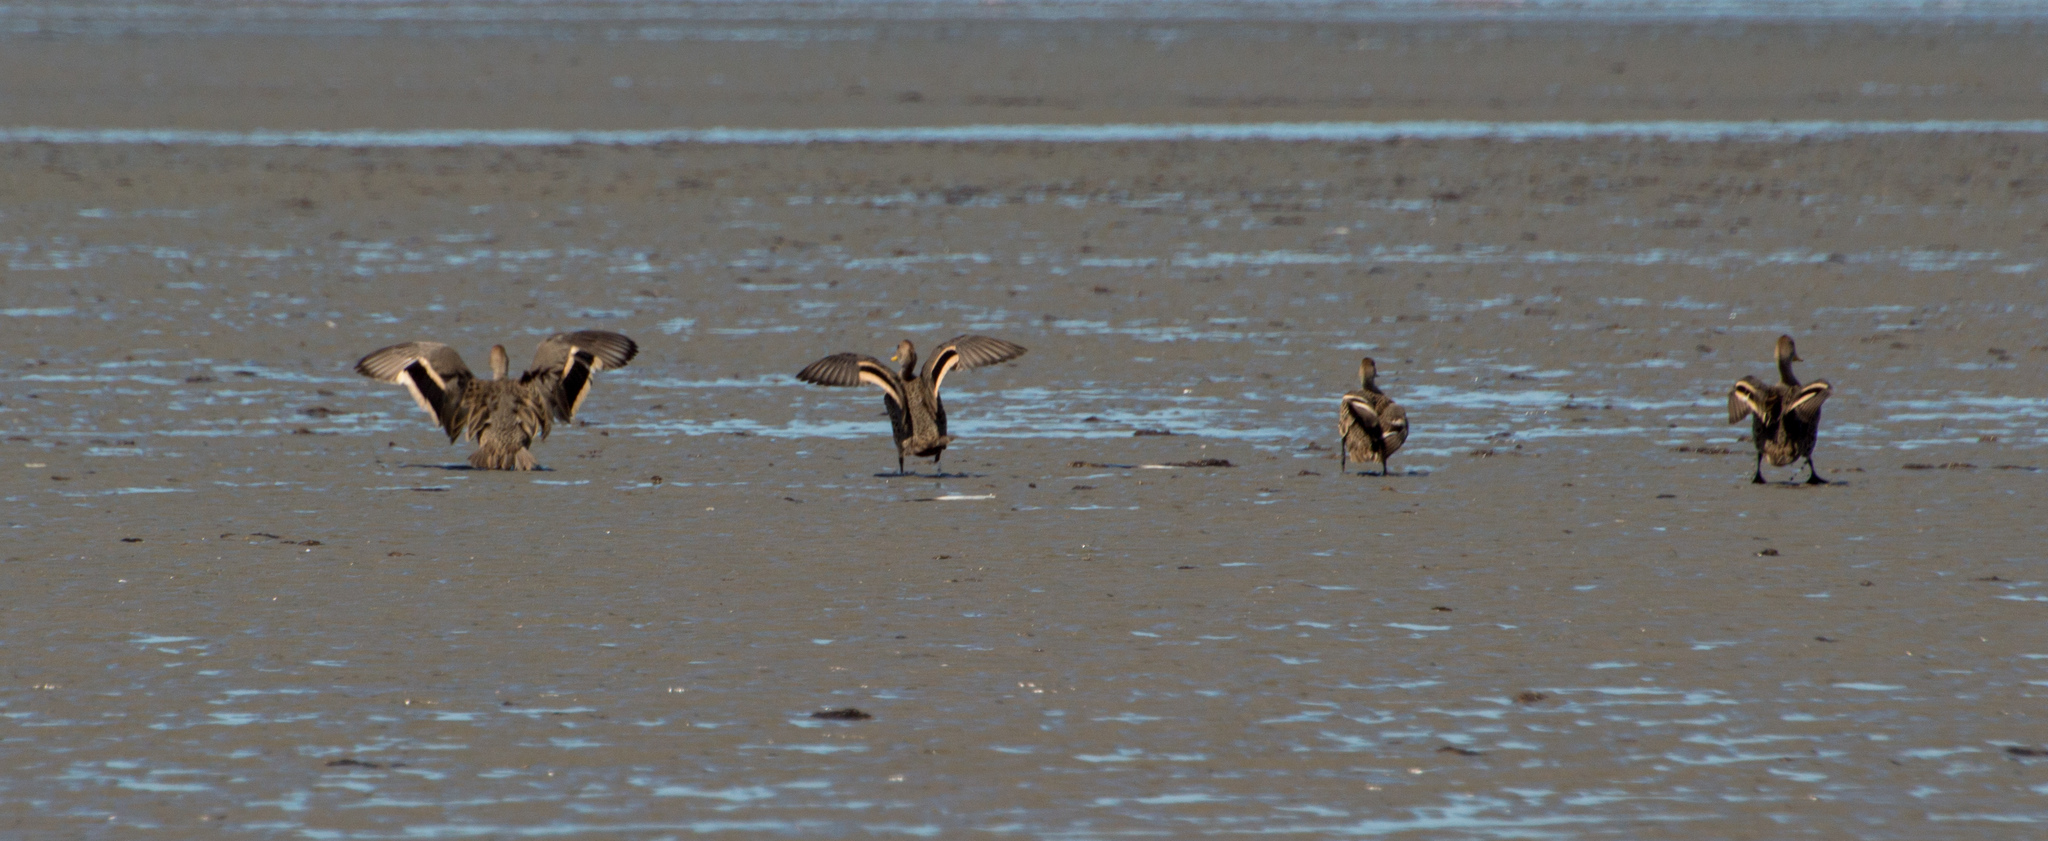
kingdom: Animalia
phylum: Chordata
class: Aves
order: Anseriformes
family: Anatidae
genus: Anas
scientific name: Anas georgica
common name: Yellow-billed pintail
